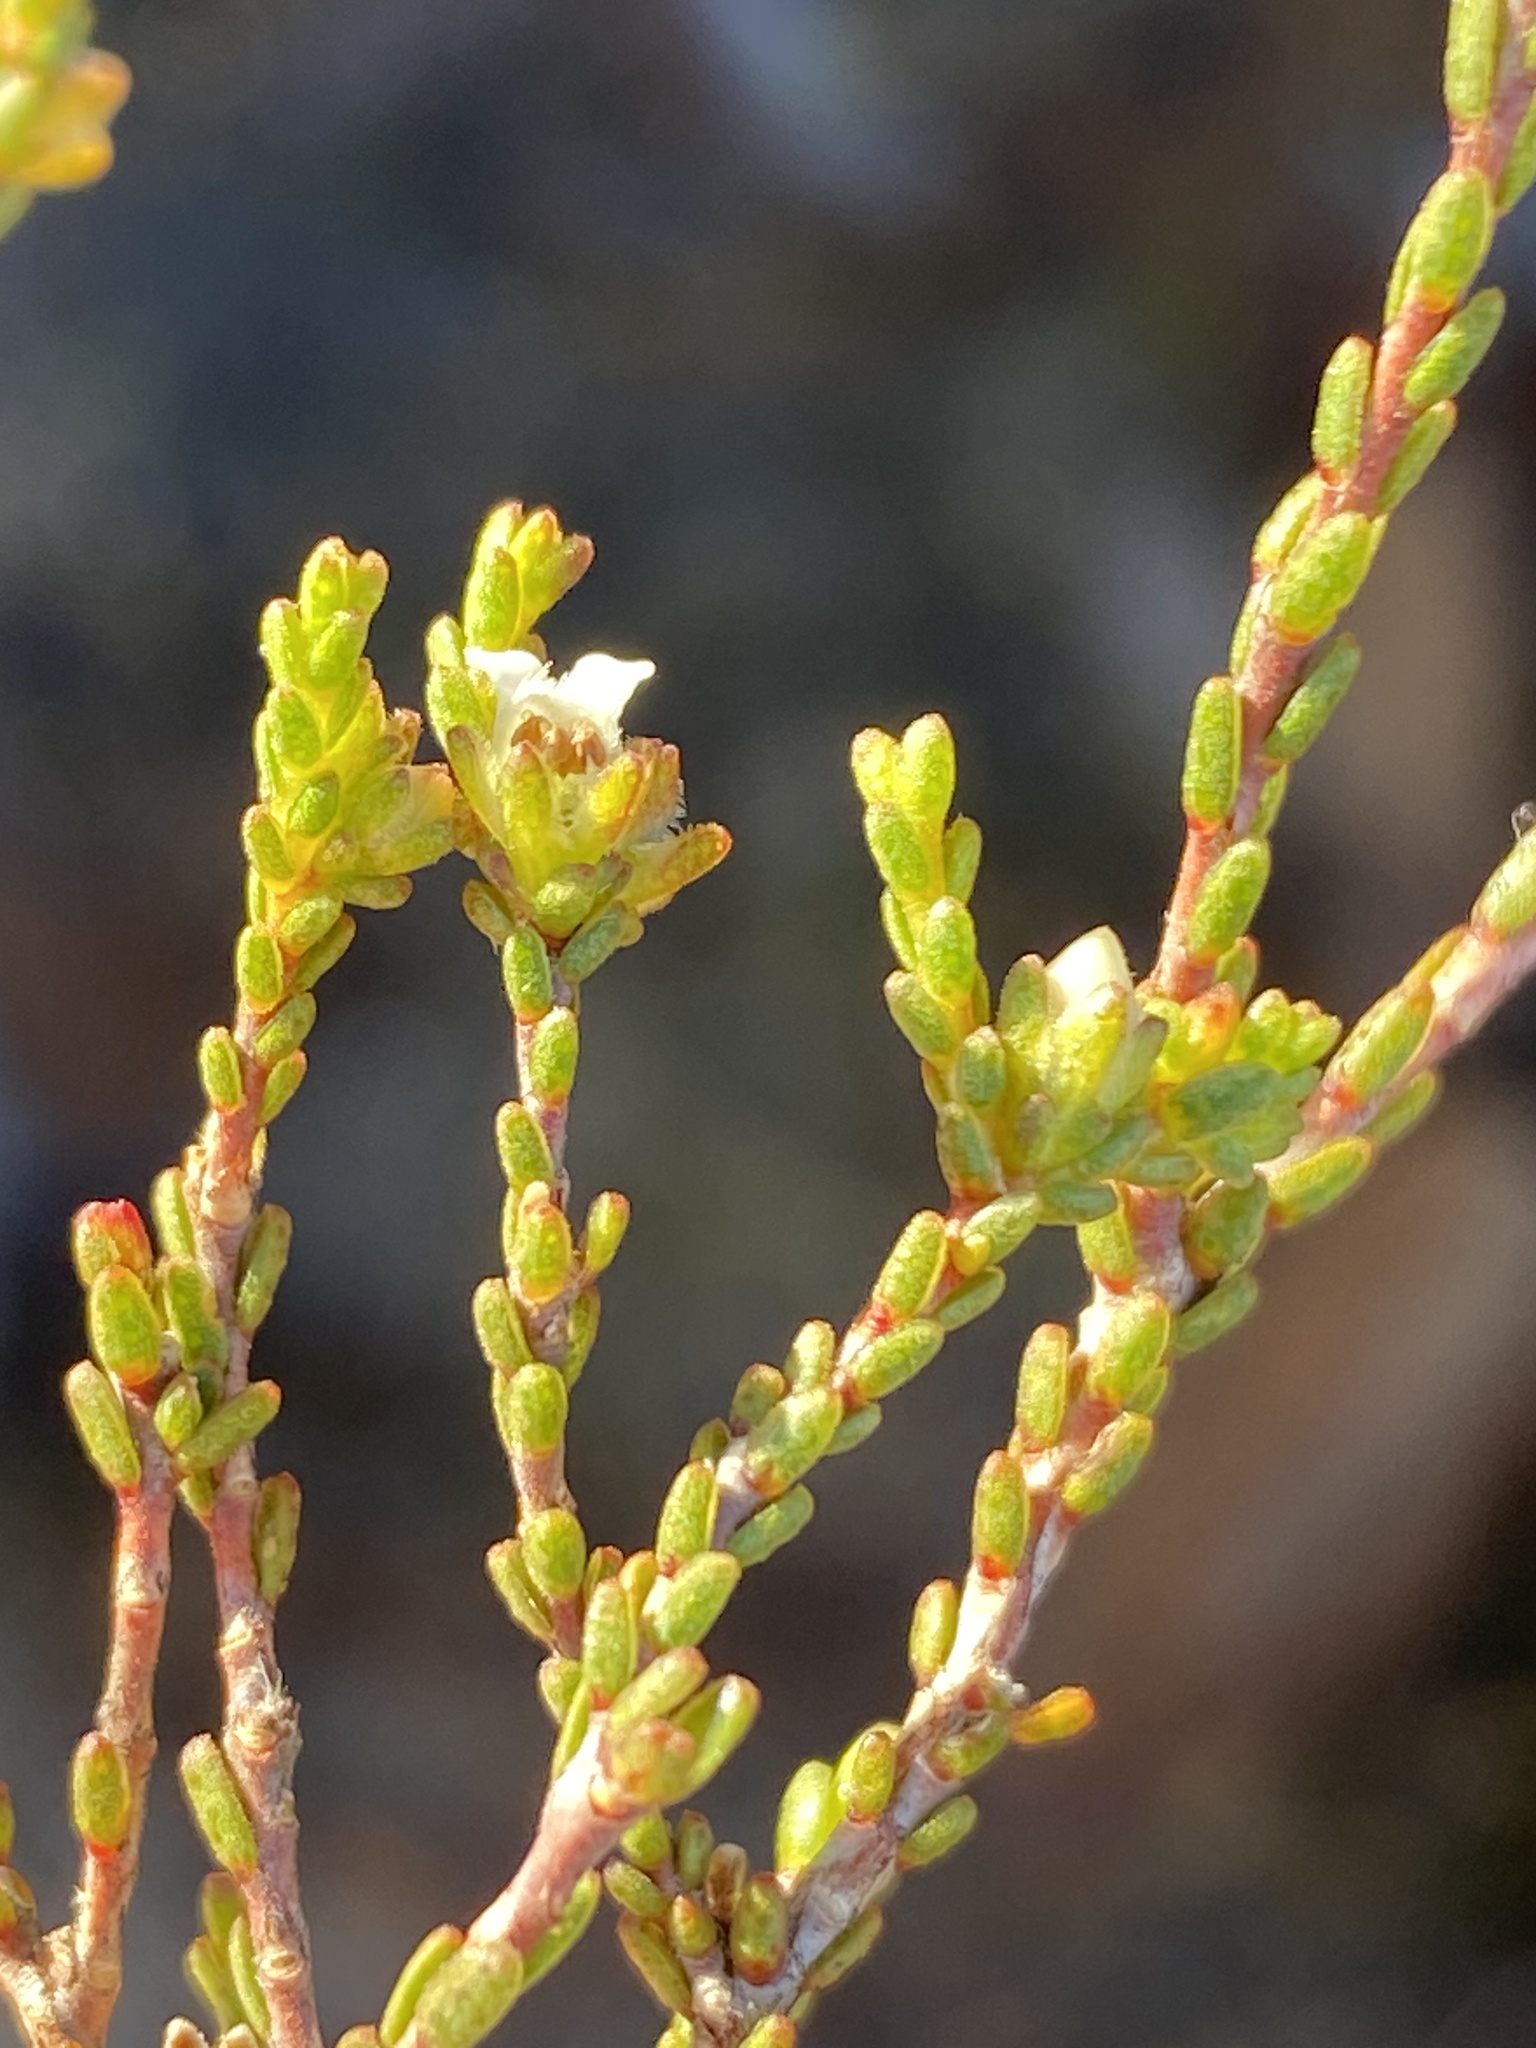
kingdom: Plantae
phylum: Tracheophyta
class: Magnoliopsida
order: Sapindales
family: Rutaceae
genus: Euchaetis
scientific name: Euchaetis elsieae
